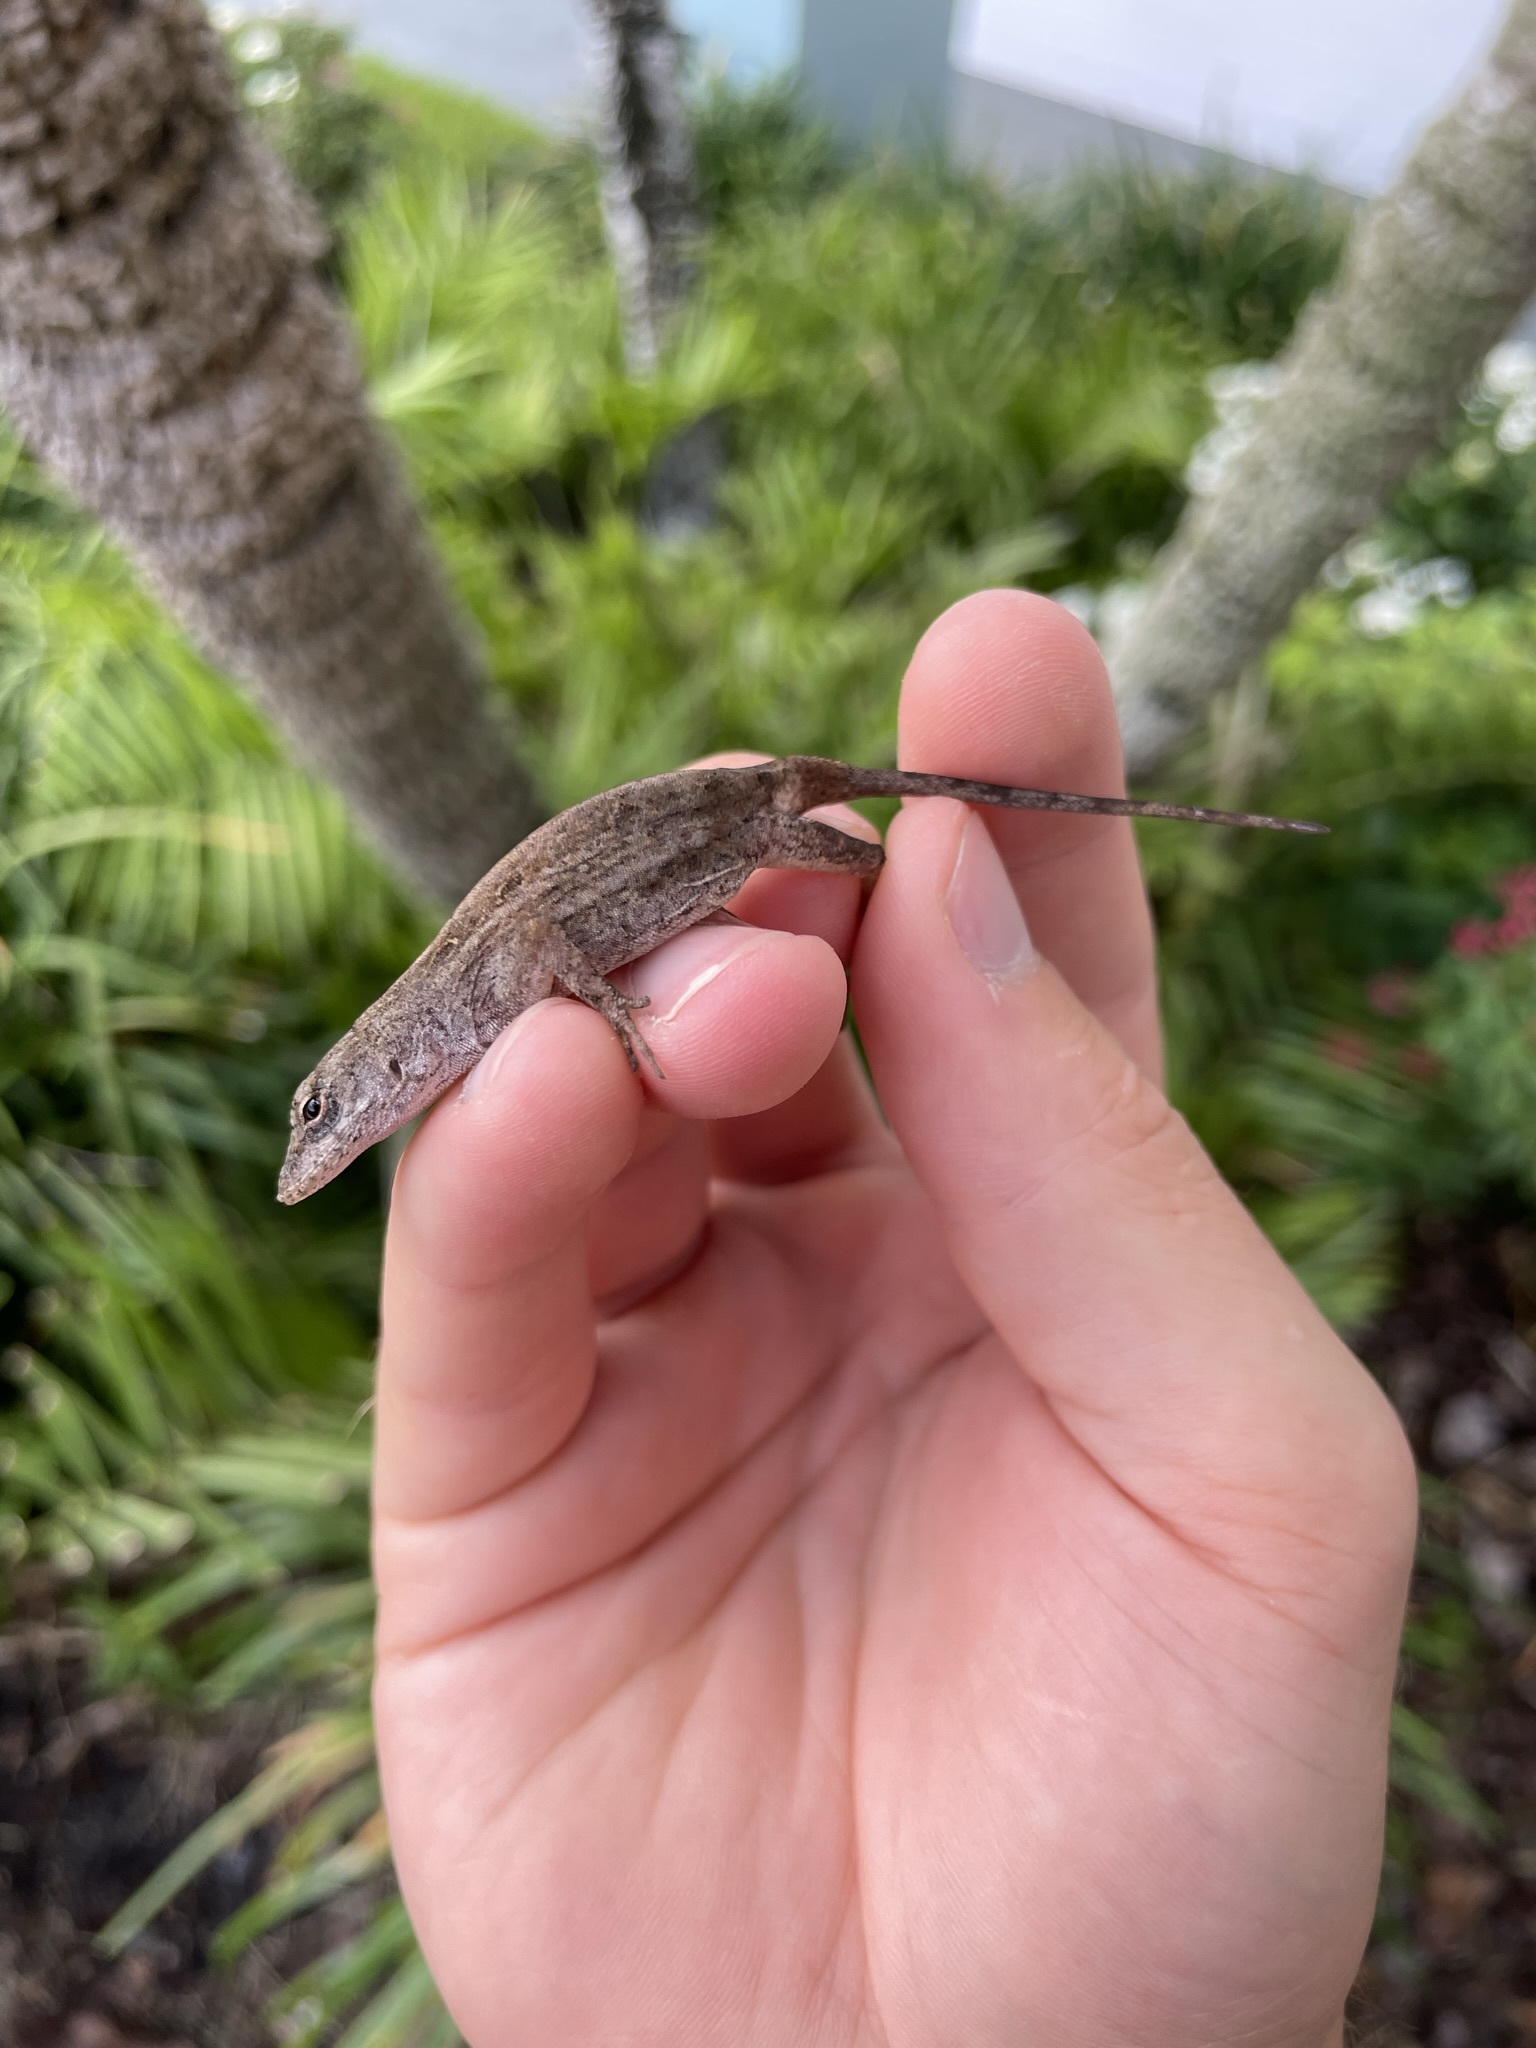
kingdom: Animalia
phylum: Chordata
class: Squamata
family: Dactyloidae
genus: Anolis
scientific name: Anolis sagrei
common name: Brown anole
